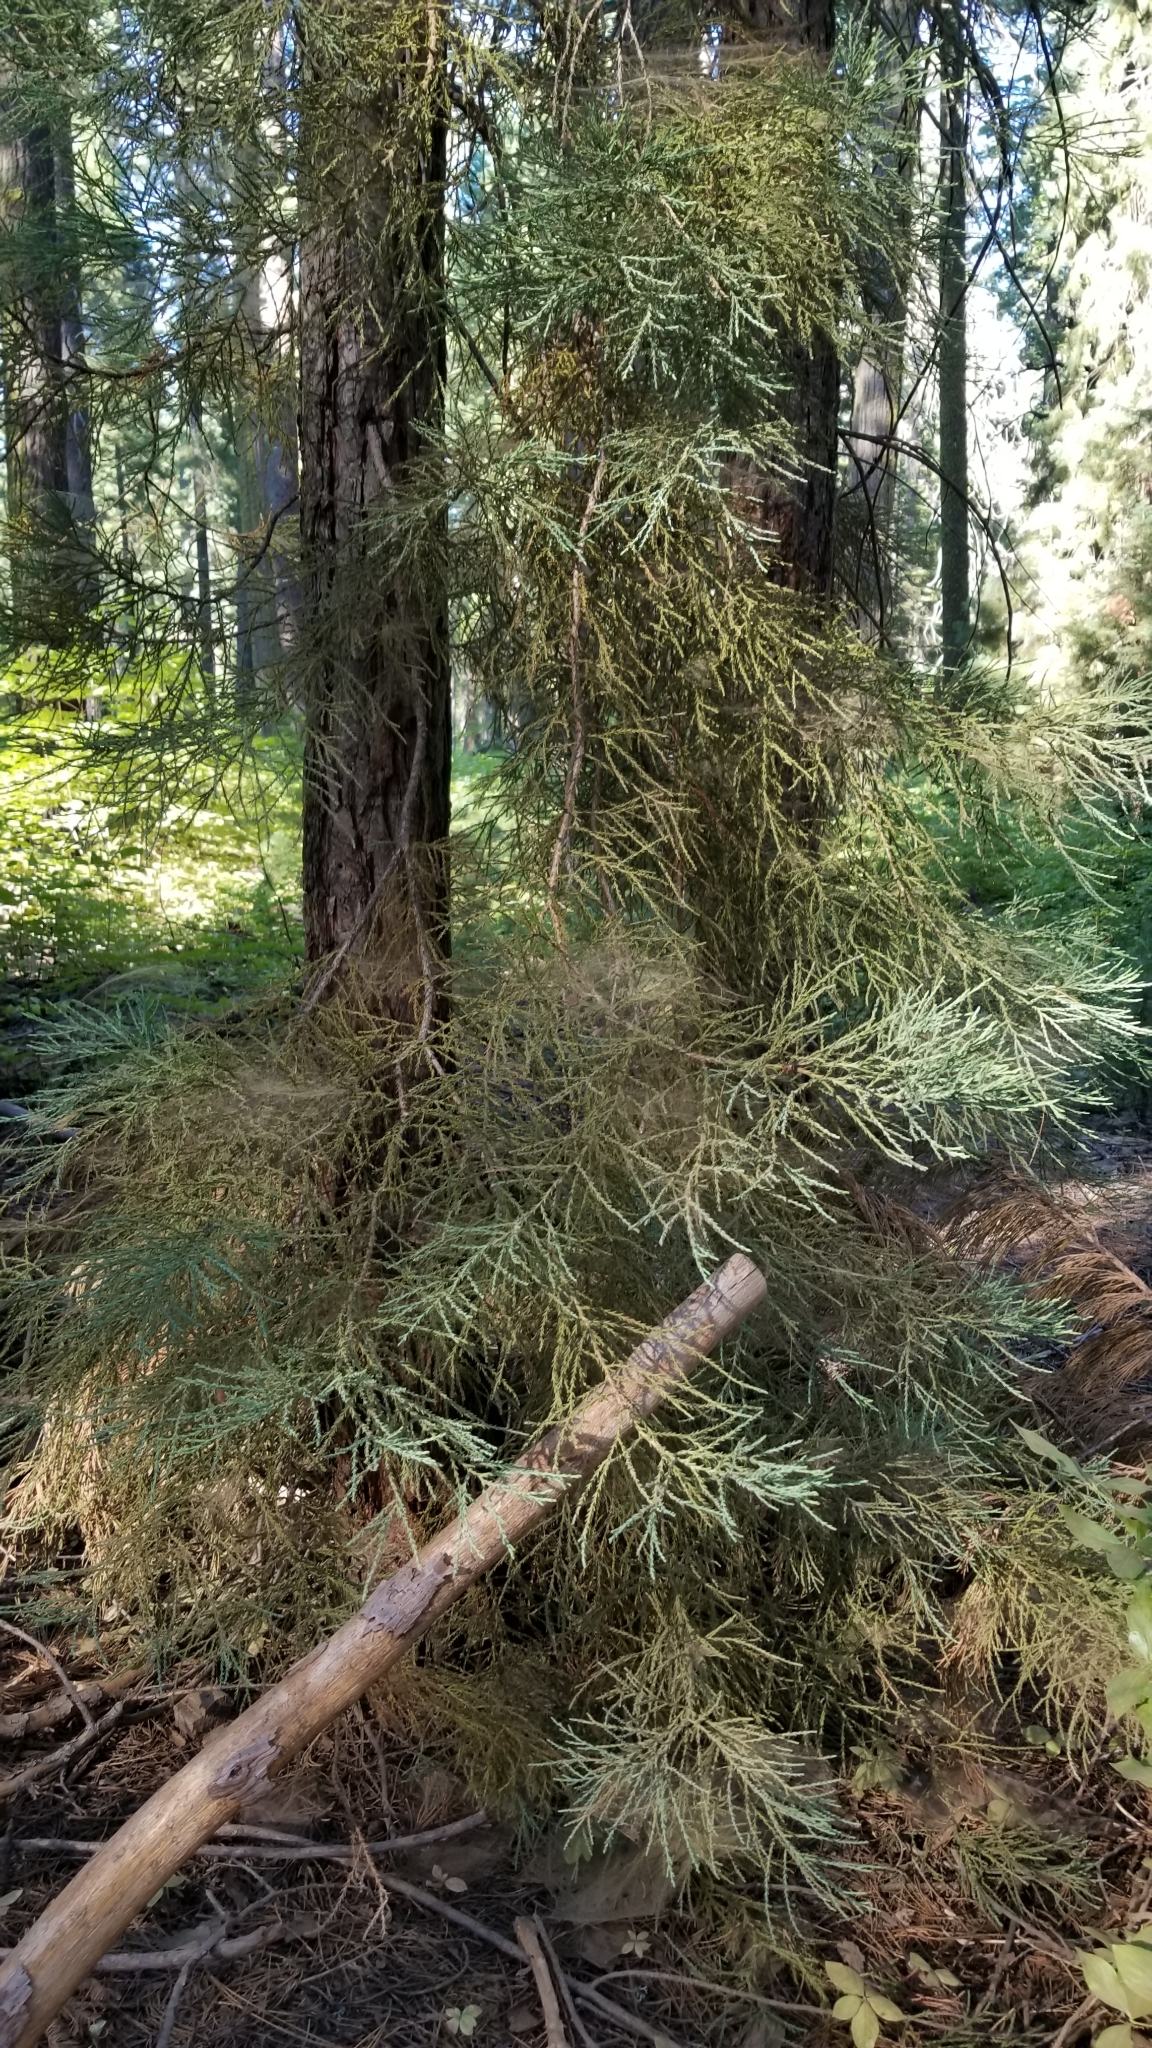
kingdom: Plantae
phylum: Tracheophyta
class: Pinopsida
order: Pinales
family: Cupressaceae
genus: Sequoiadendron
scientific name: Sequoiadendron giganteum
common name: Wellingtonia
